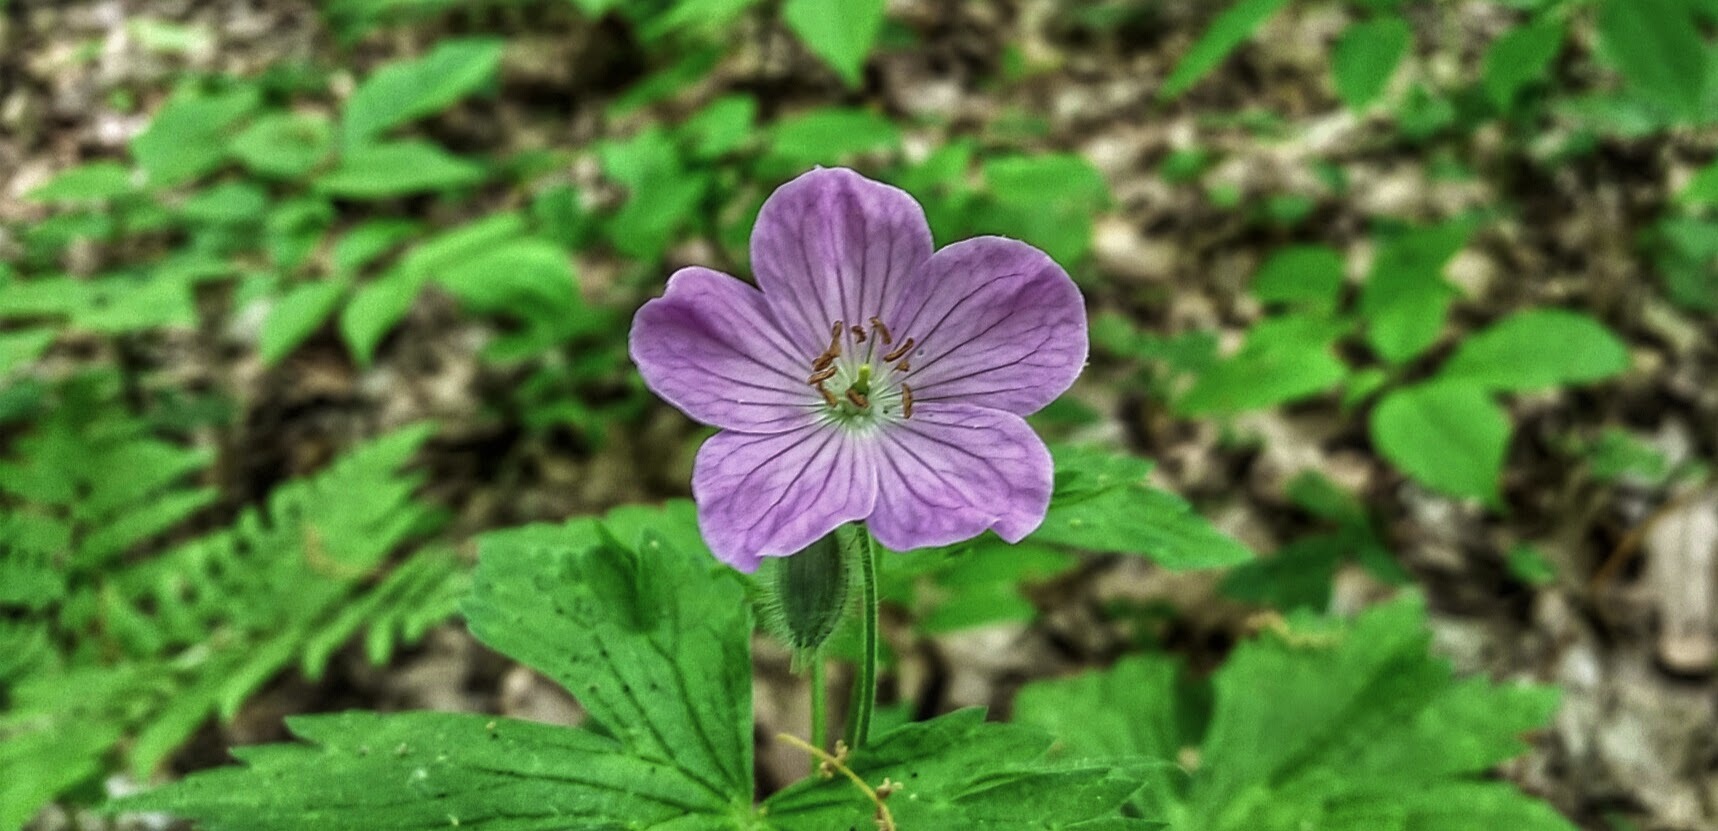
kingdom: Plantae
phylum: Tracheophyta
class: Magnoliopsida
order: Geraniales
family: Geraniaceae
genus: Geranium
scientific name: Geranium maculatum
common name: Spotted geranium
